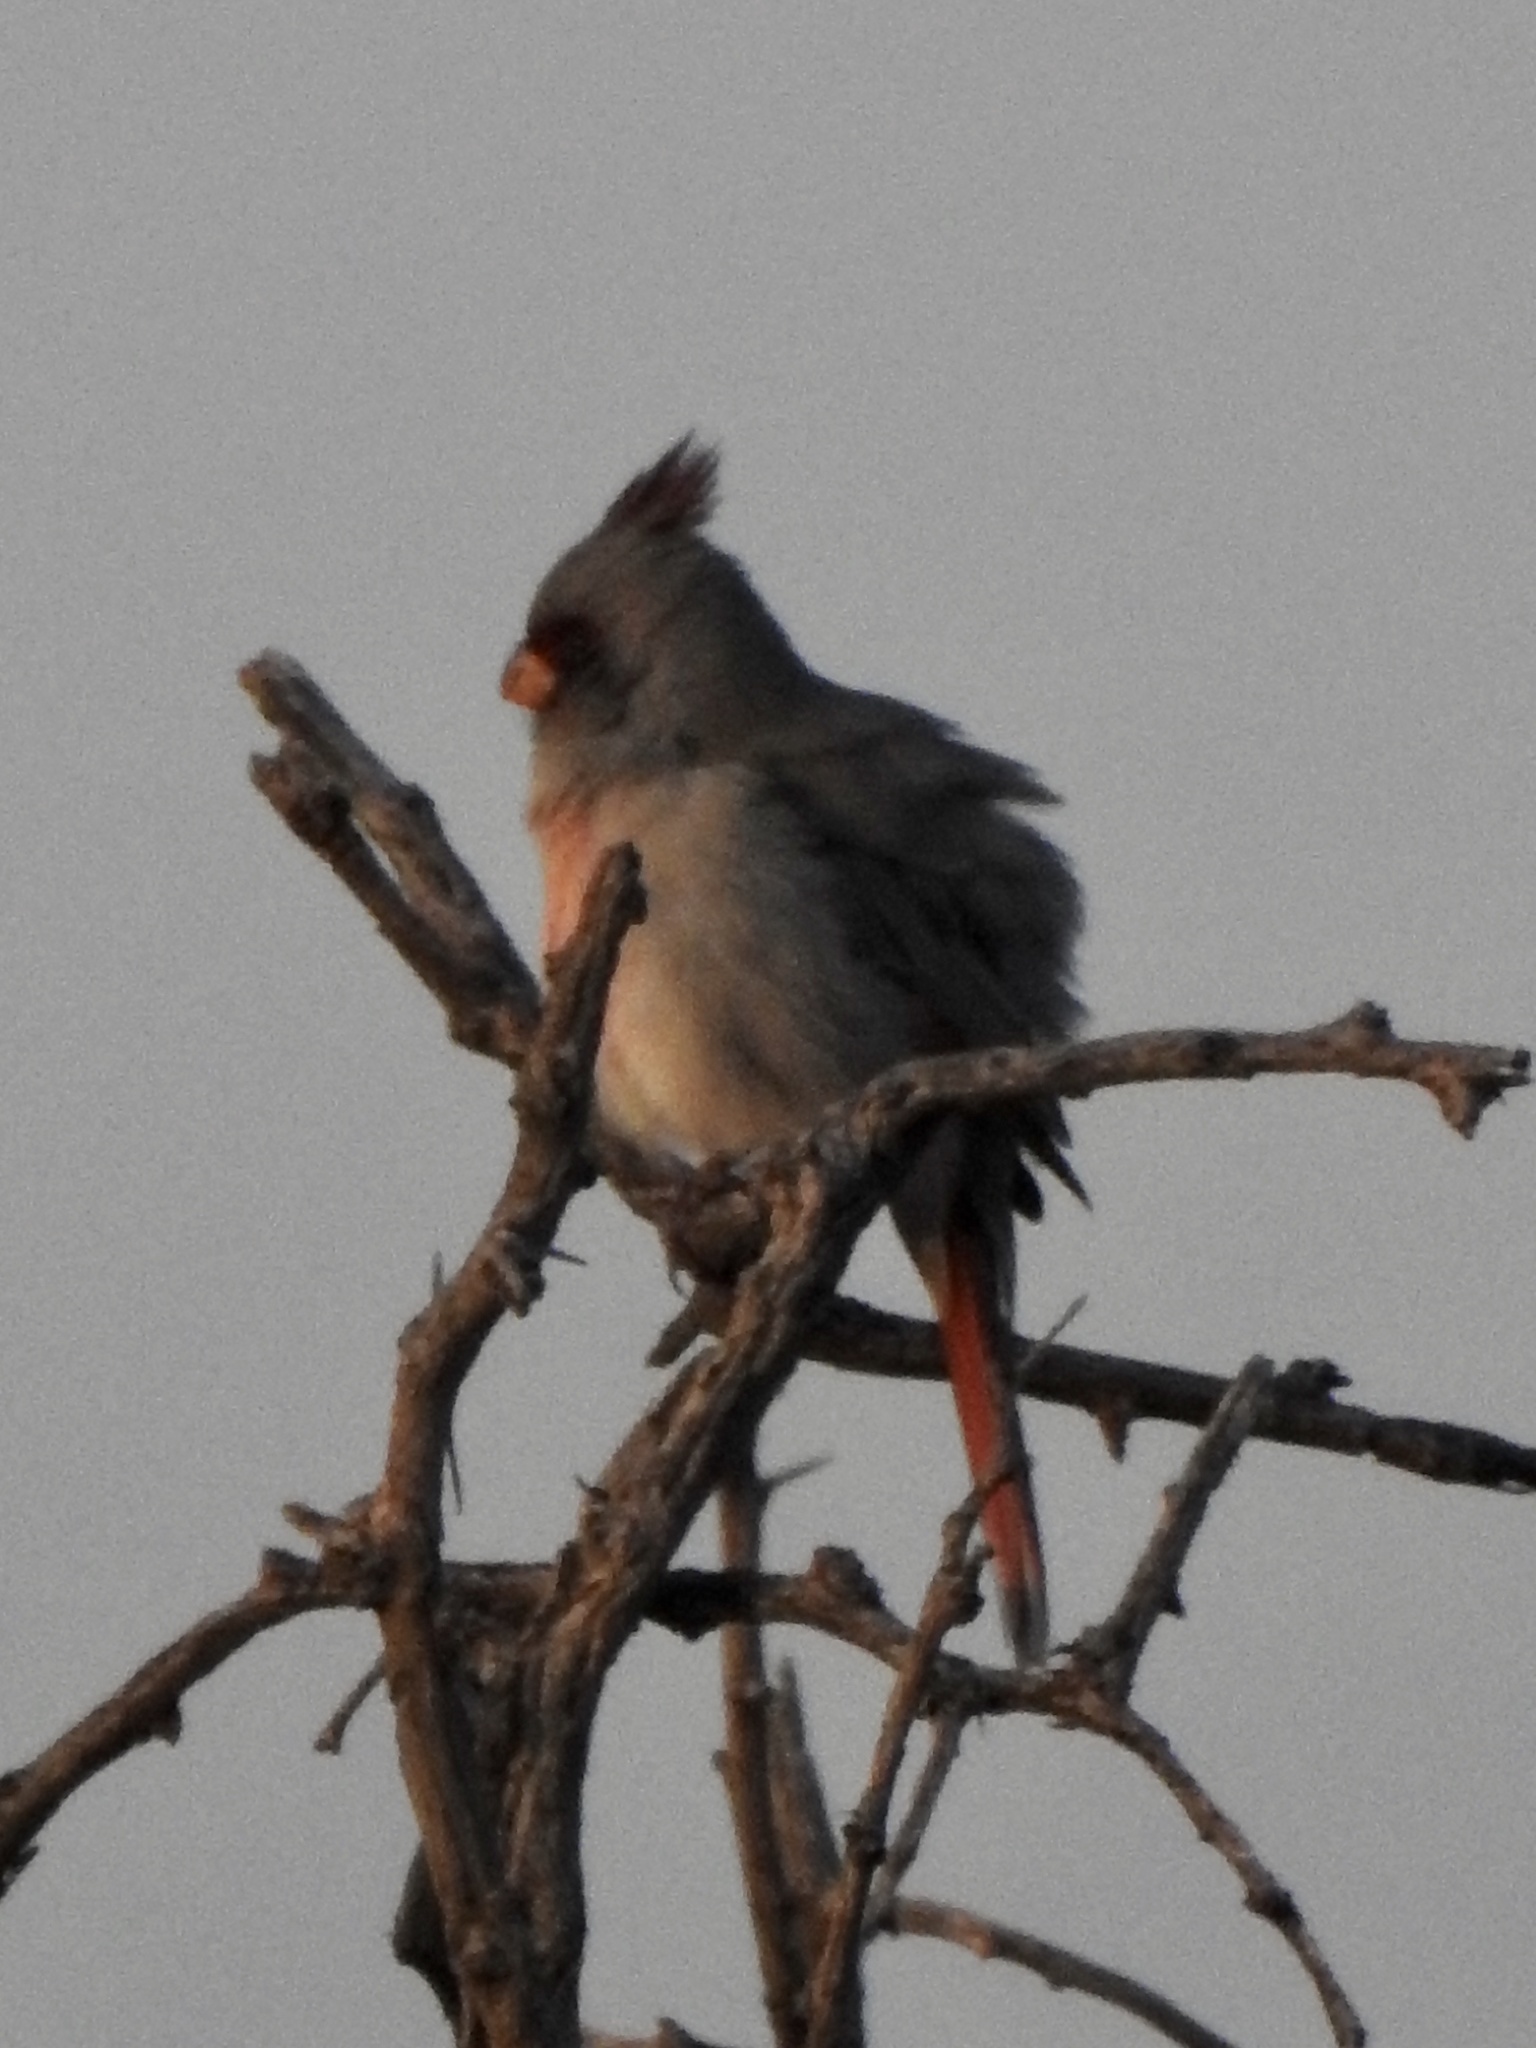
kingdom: Animalia
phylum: Chordata
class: Aves
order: Passeriformes
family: Cardinalidae
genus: Cardinalis
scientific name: Cardinalis sinuatus
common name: Pyrrhuloxia
